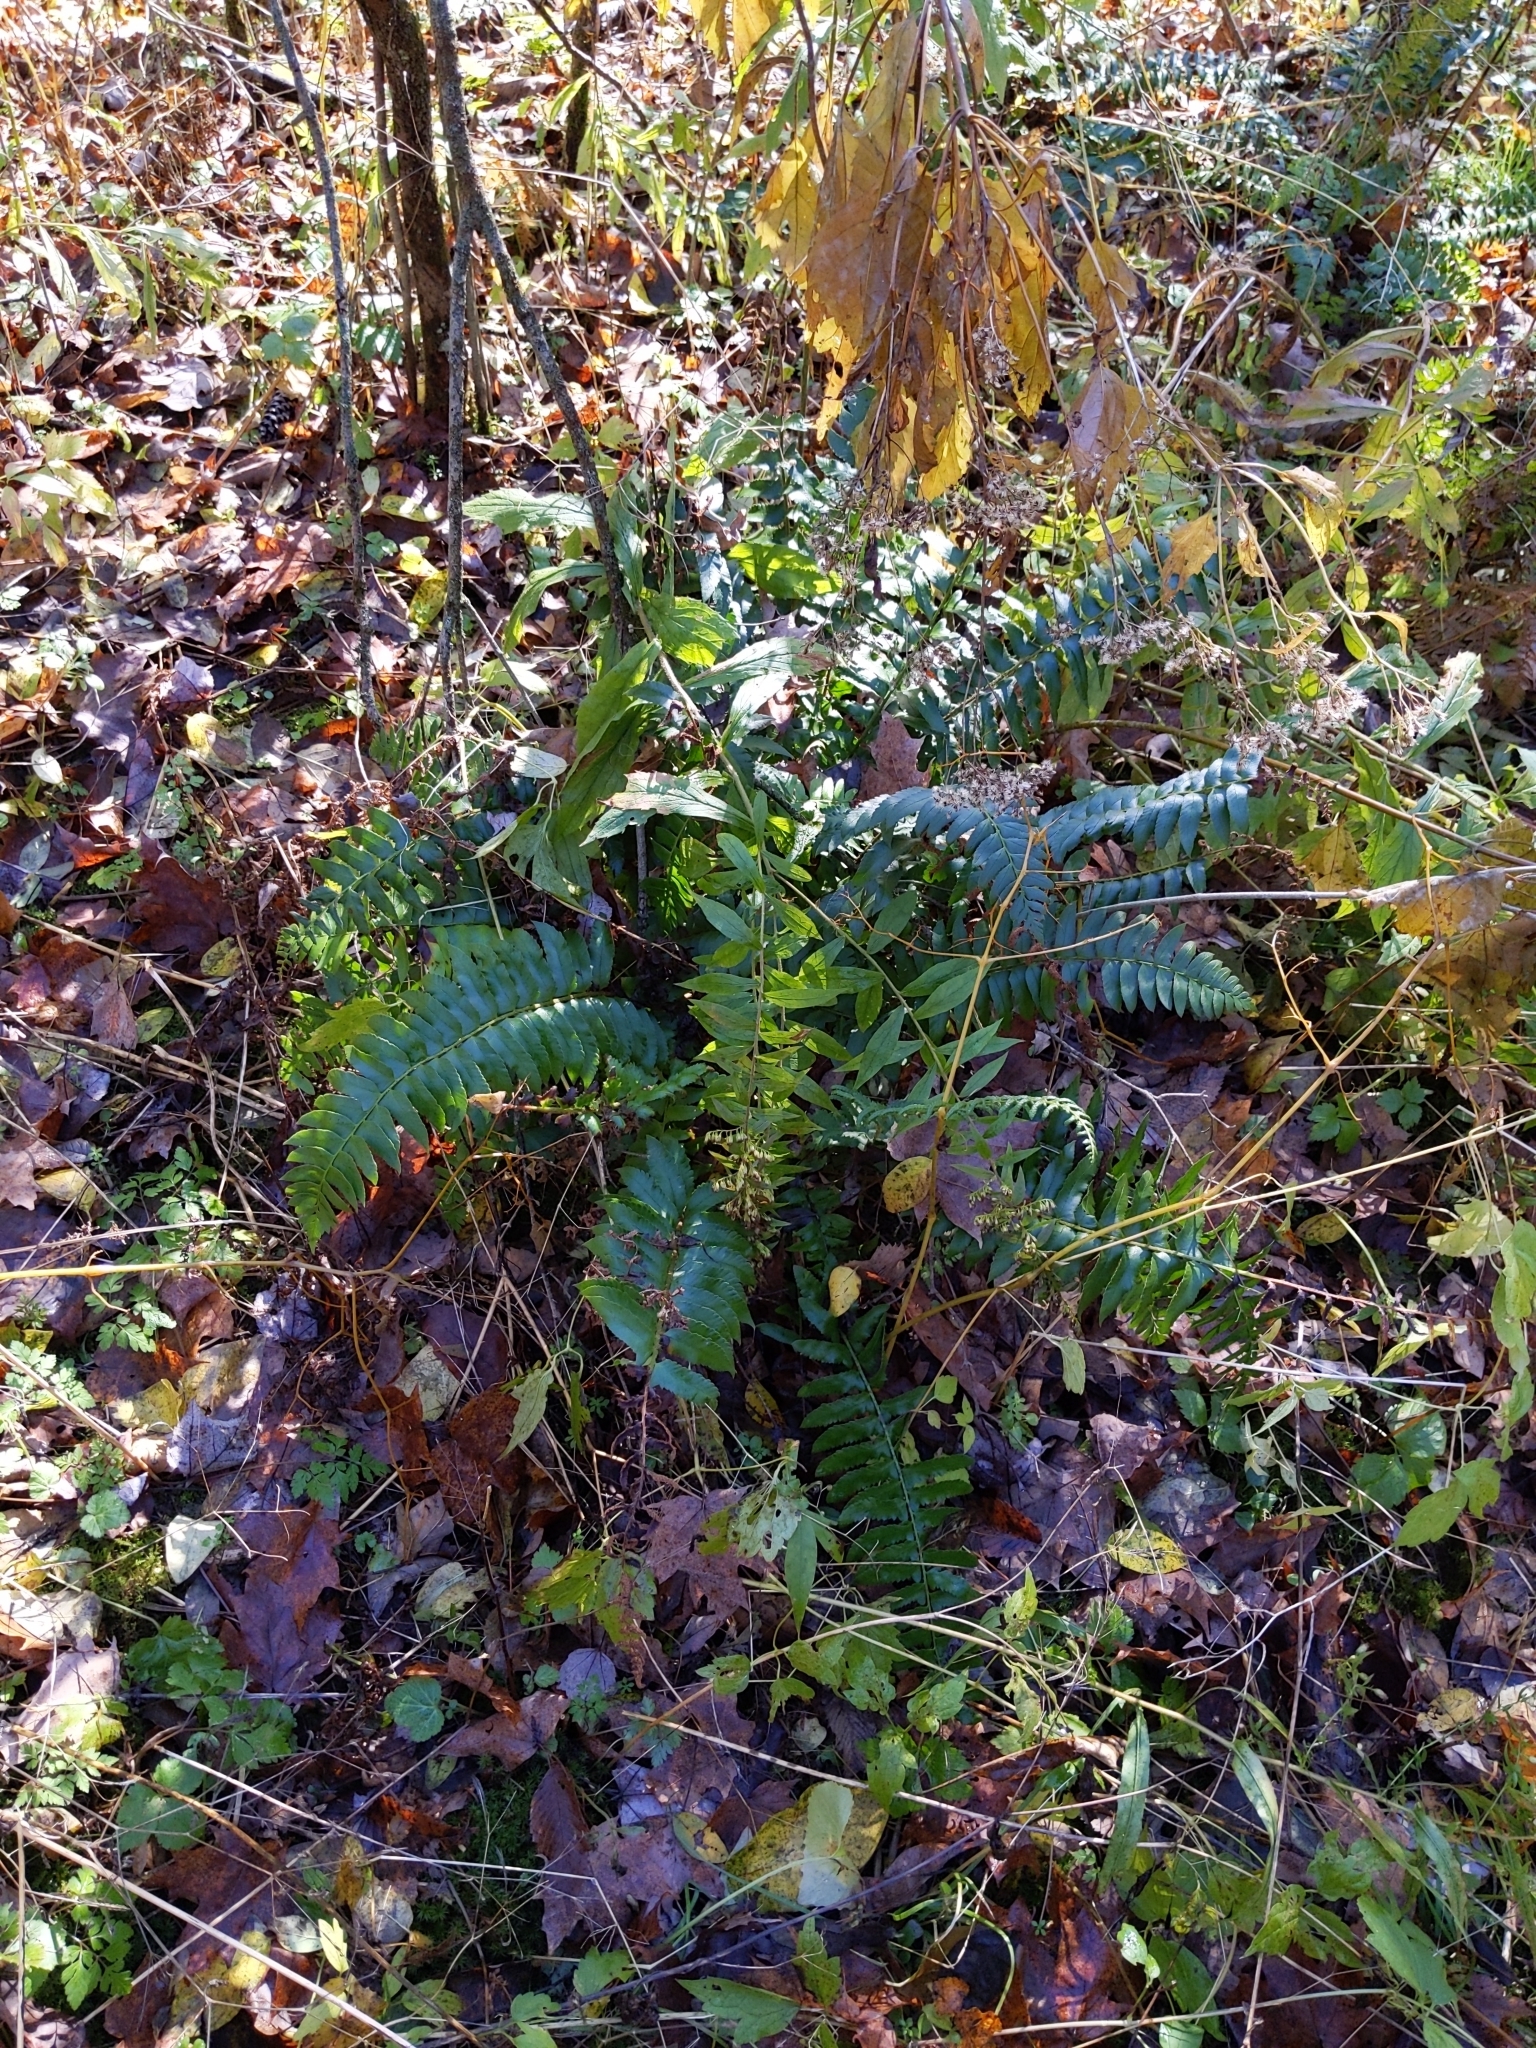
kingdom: Plantae
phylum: Tracheophyta
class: Polypodiopsida
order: Polypodiales
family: Dryopteridaceae
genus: Polystichum
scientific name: Polystichum acrostichoides
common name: Christmas fern
